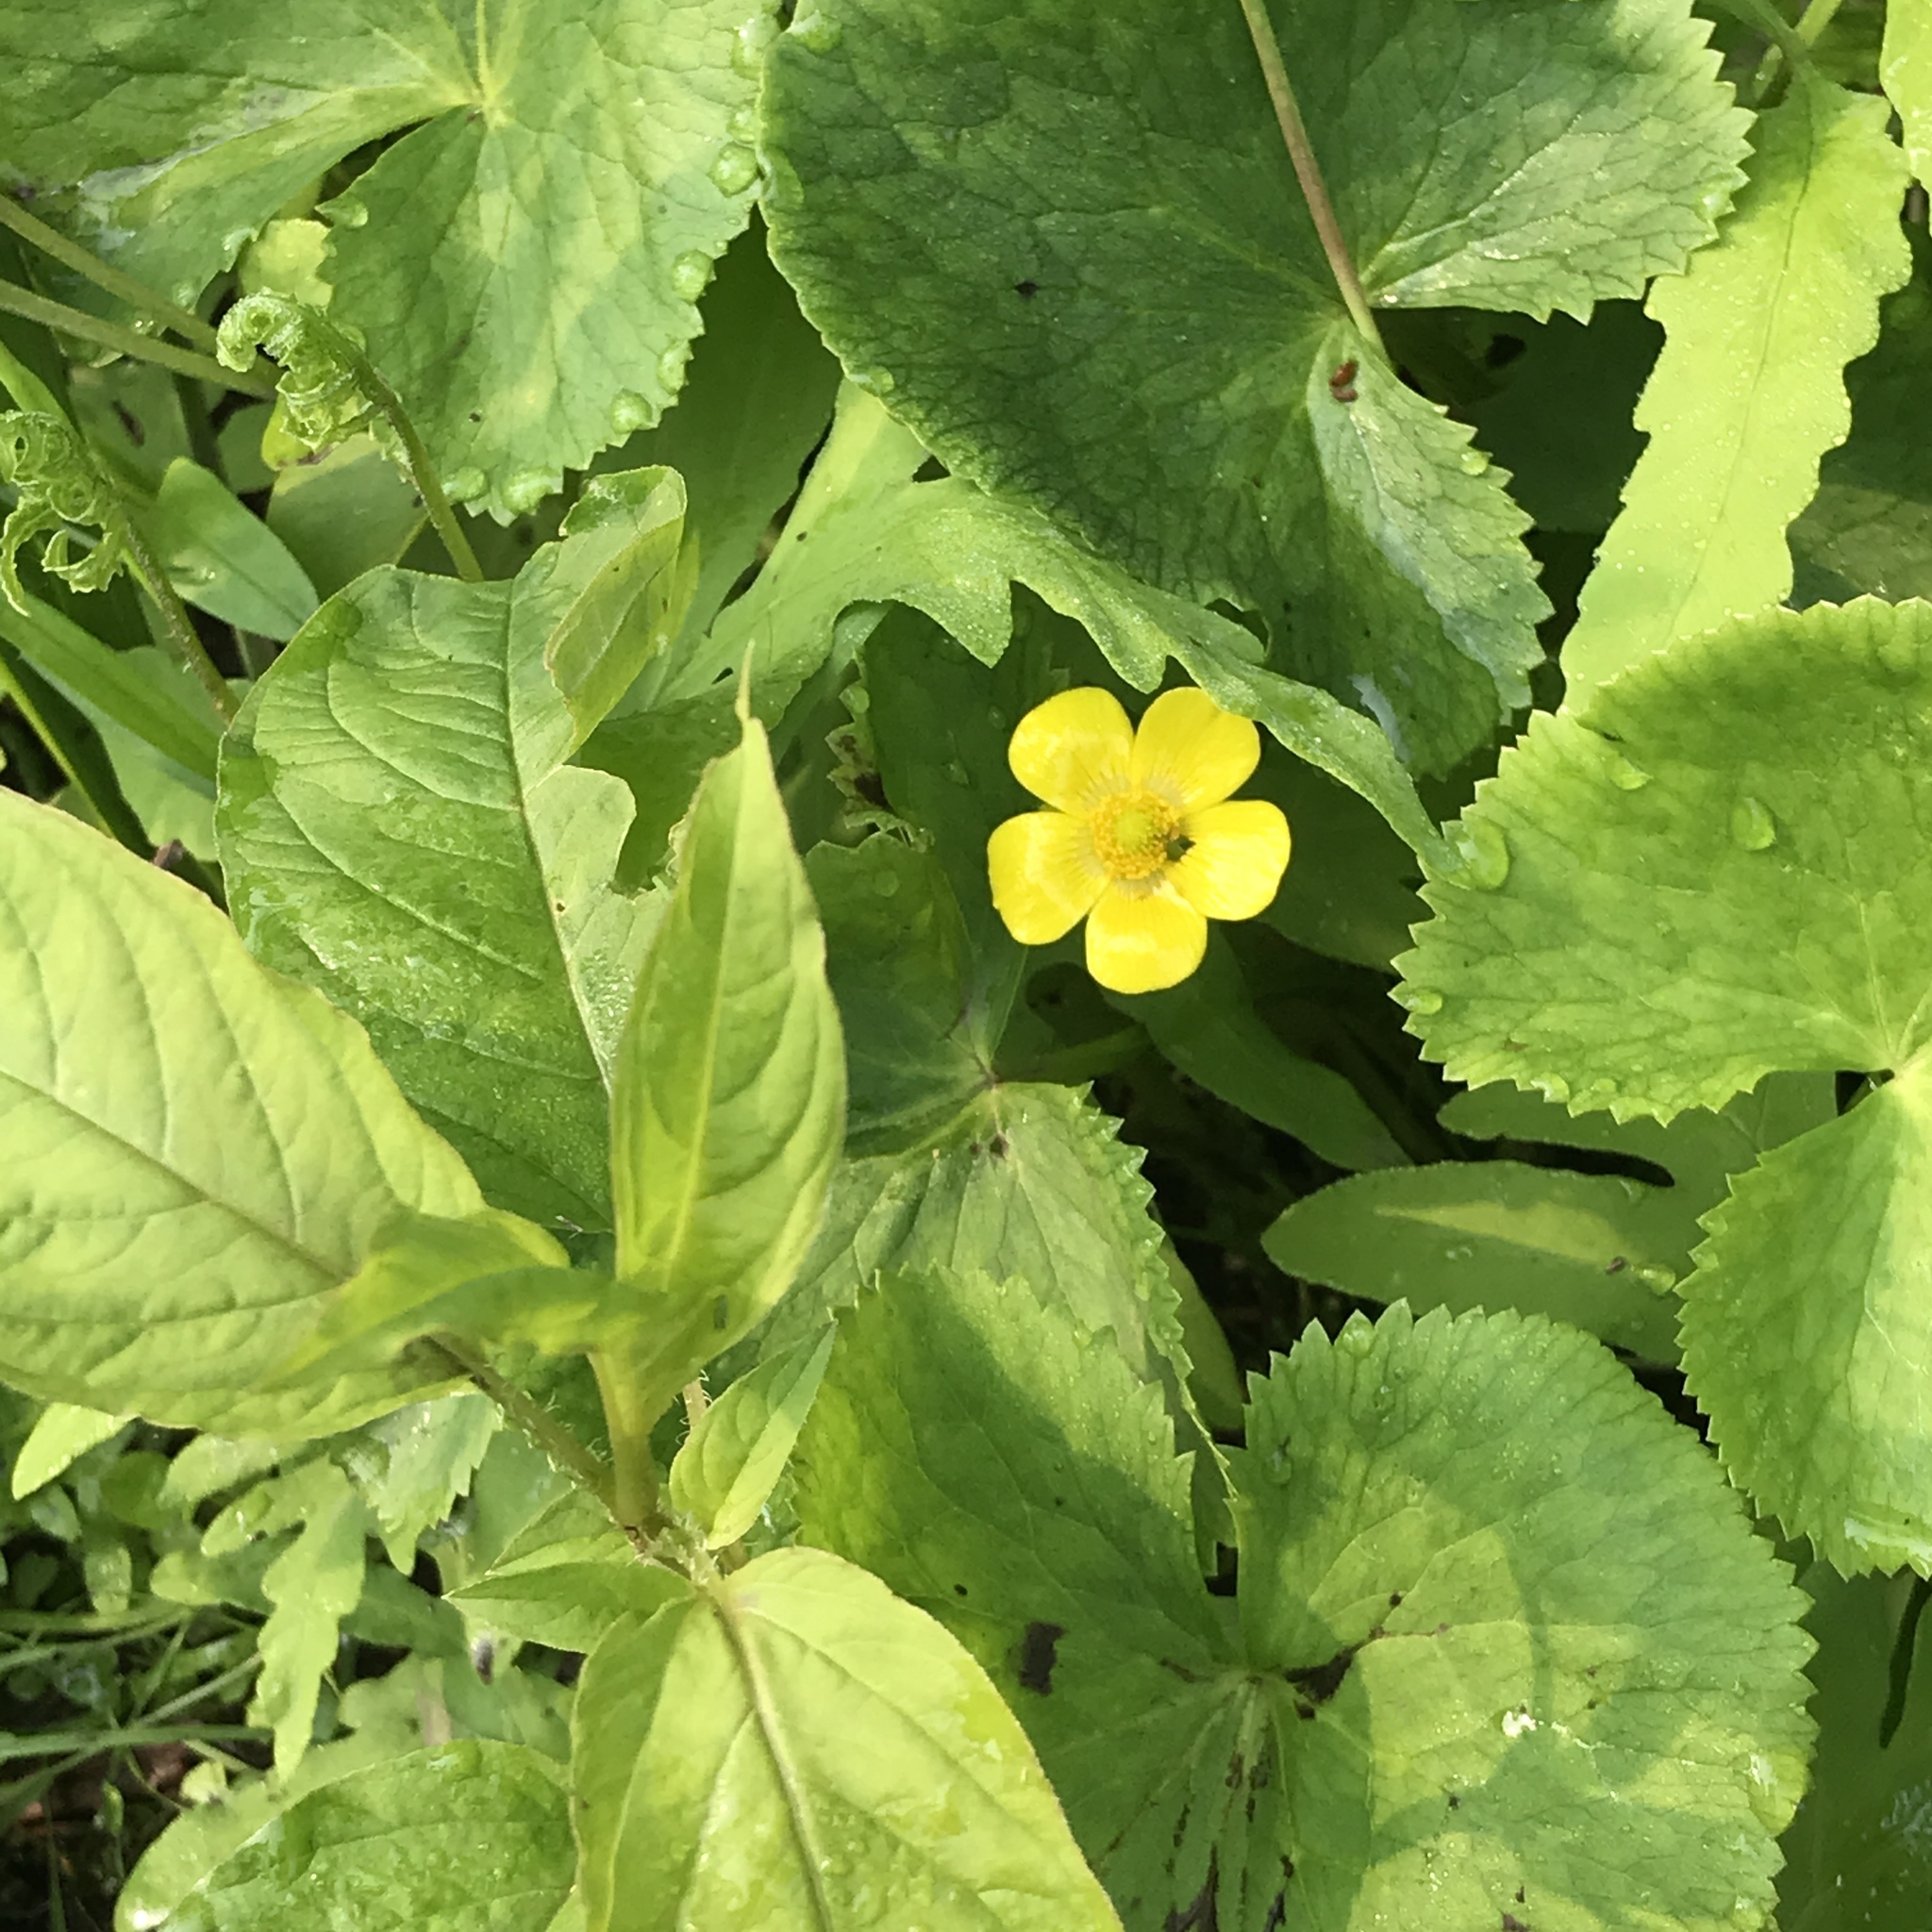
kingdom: Plantae
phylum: Tracheophyta
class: Magnoliopsida
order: Ranunculales
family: Ranunculaceae
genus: Caltha
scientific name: Caltha palustris
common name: Marsh marigold
